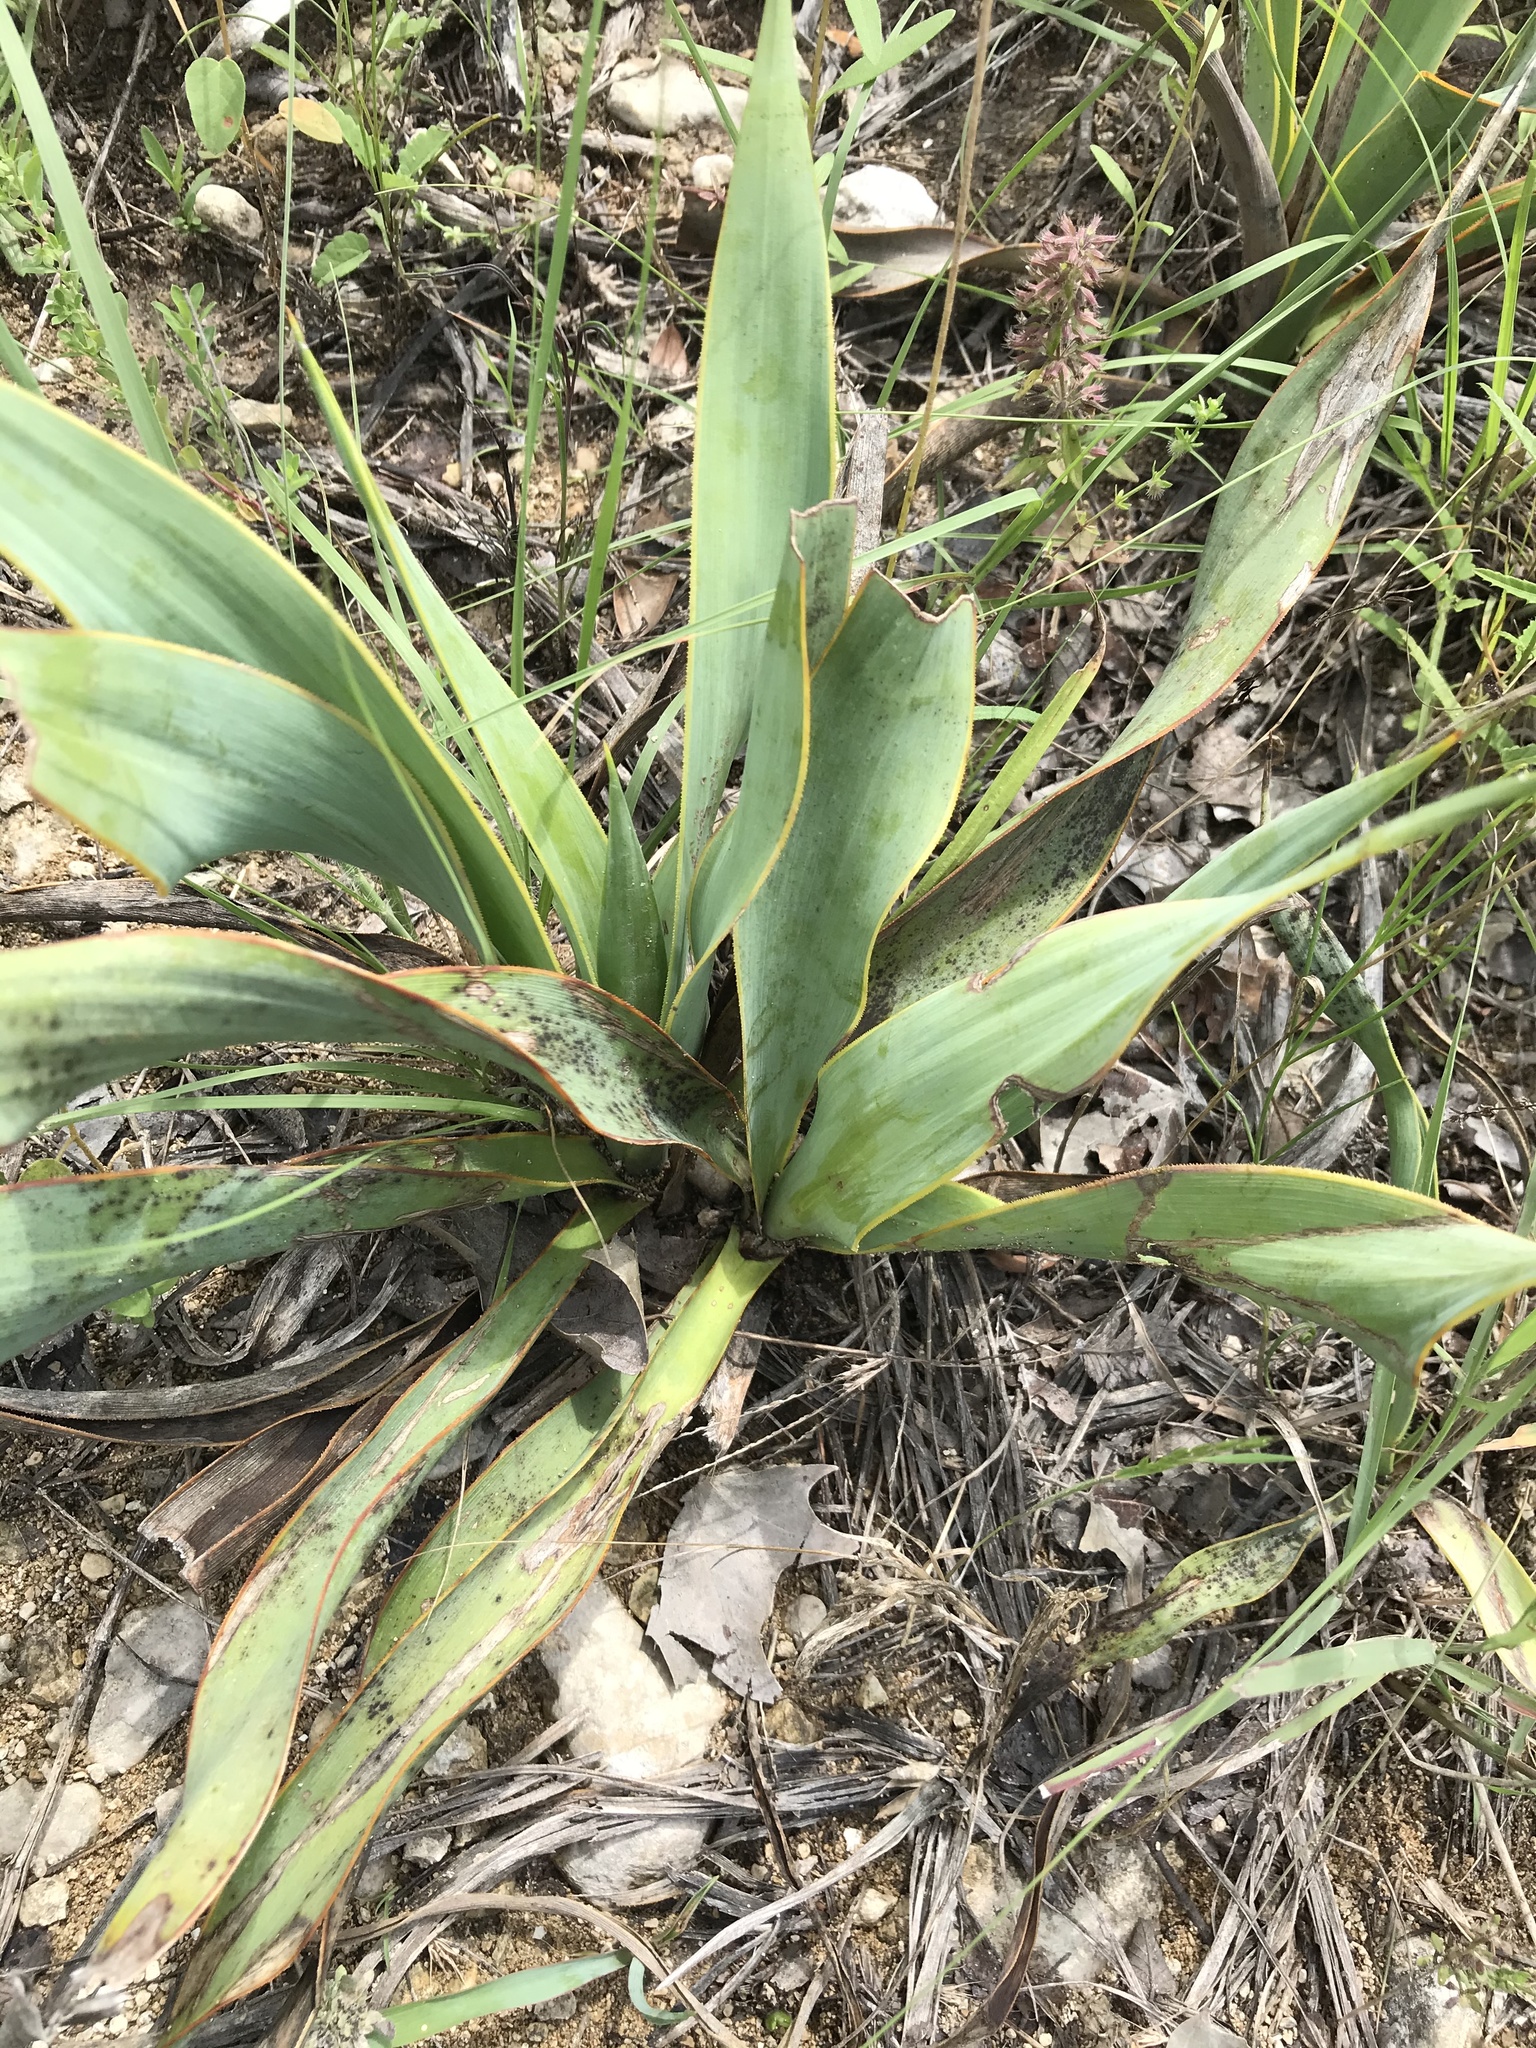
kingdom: Plantae
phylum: Tracheophyta
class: Liliopsida
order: Asparagales
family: Asparagaceae
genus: Yucca
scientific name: Yucca rupicola
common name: Twisted-leaf spanish-dagger
